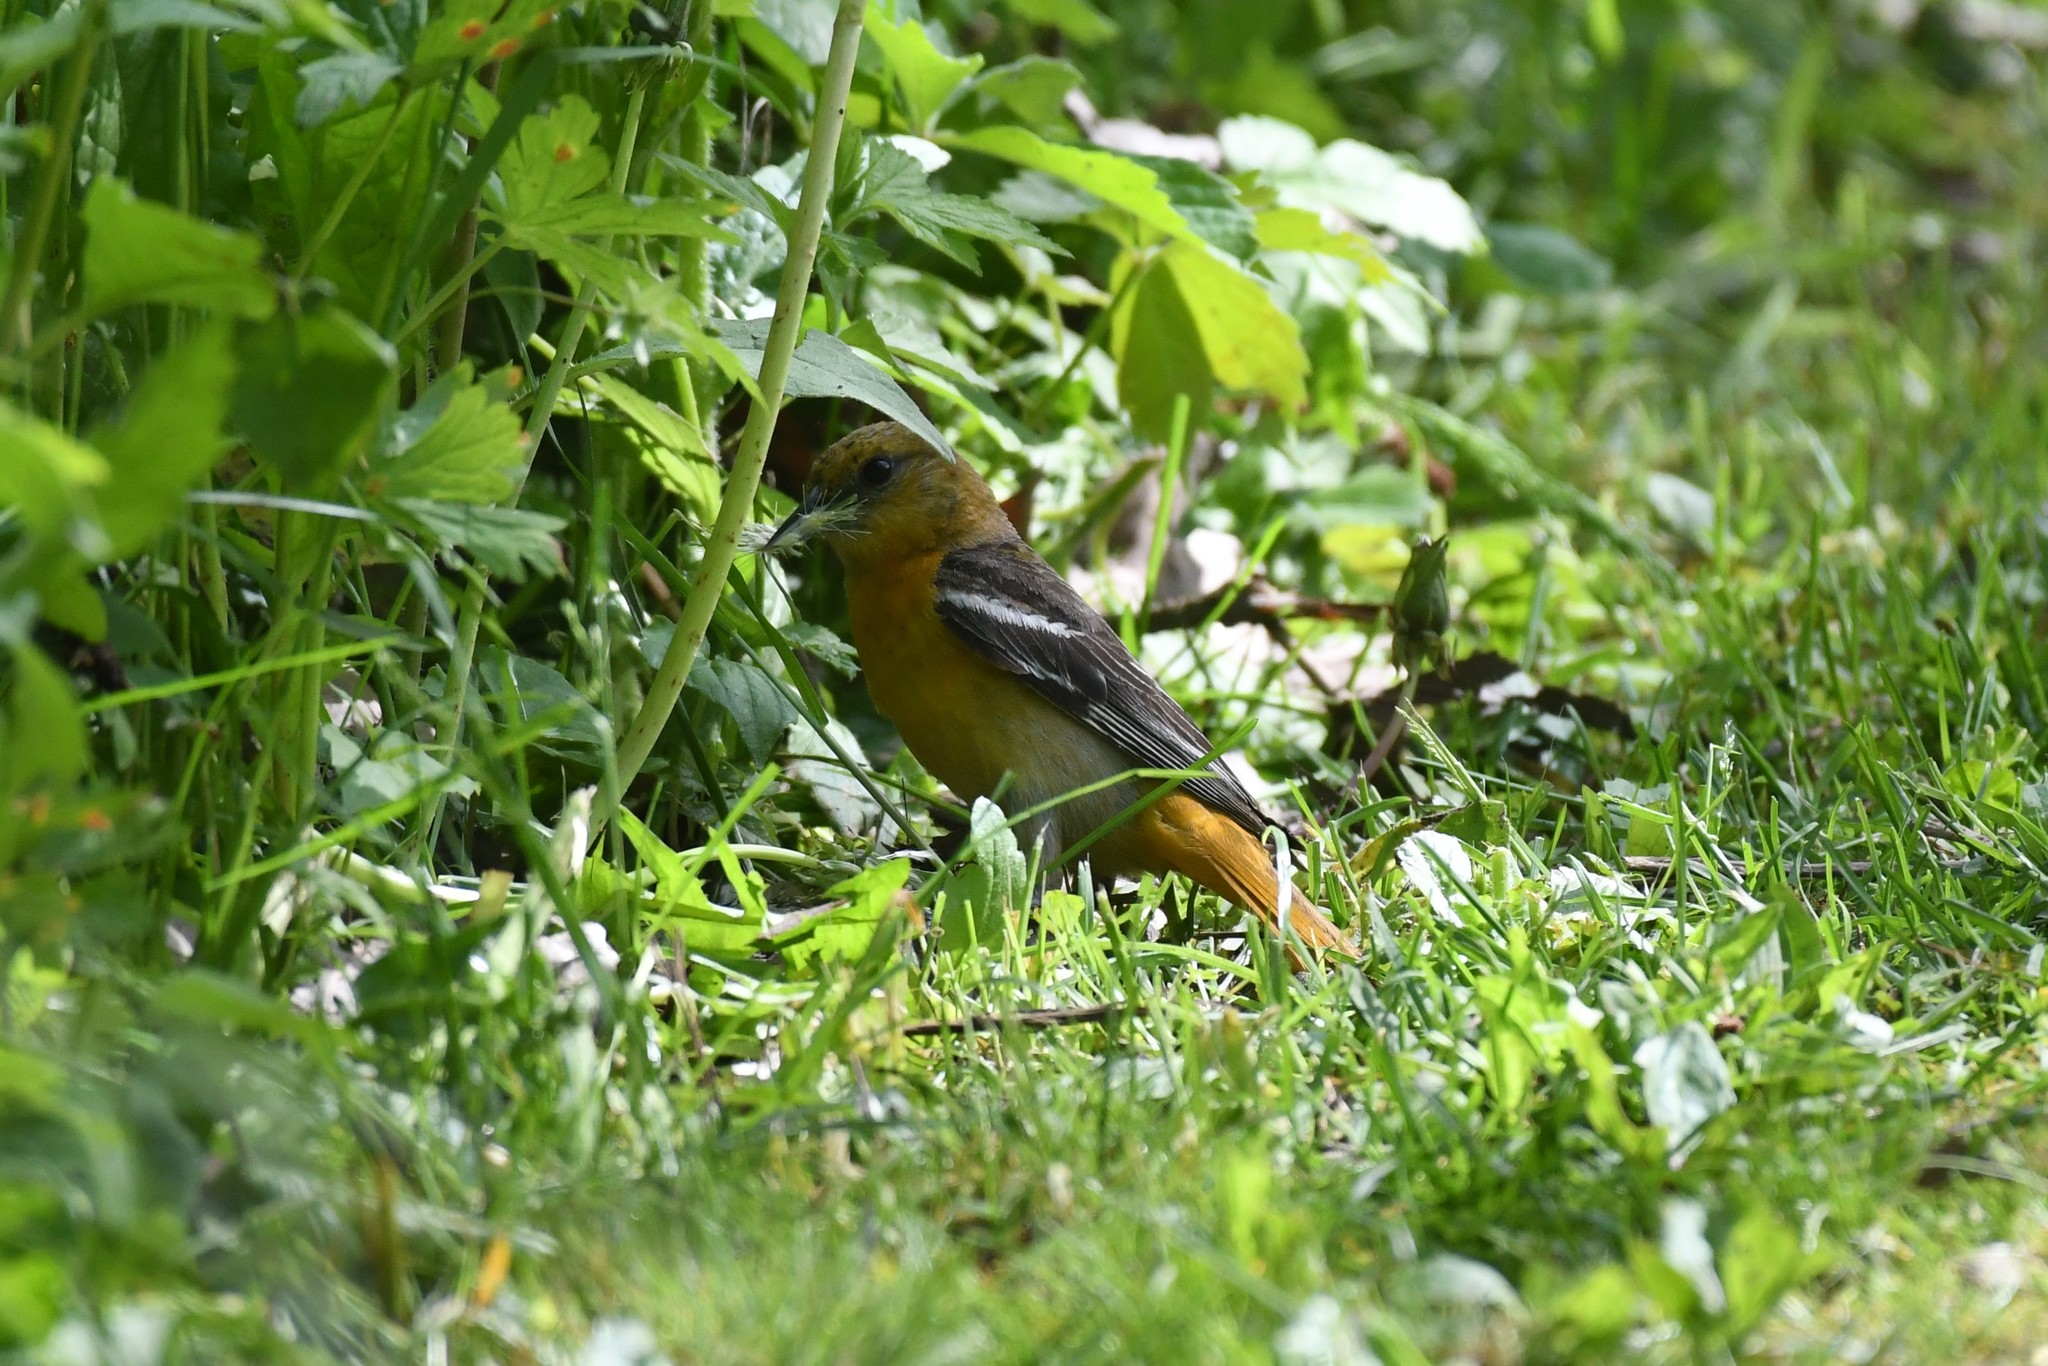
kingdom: Animalia
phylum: Chordata
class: Aves
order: Passeriformes
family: Icteridae
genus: Icterus
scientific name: Icterus galbula
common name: Baltimore oriole
